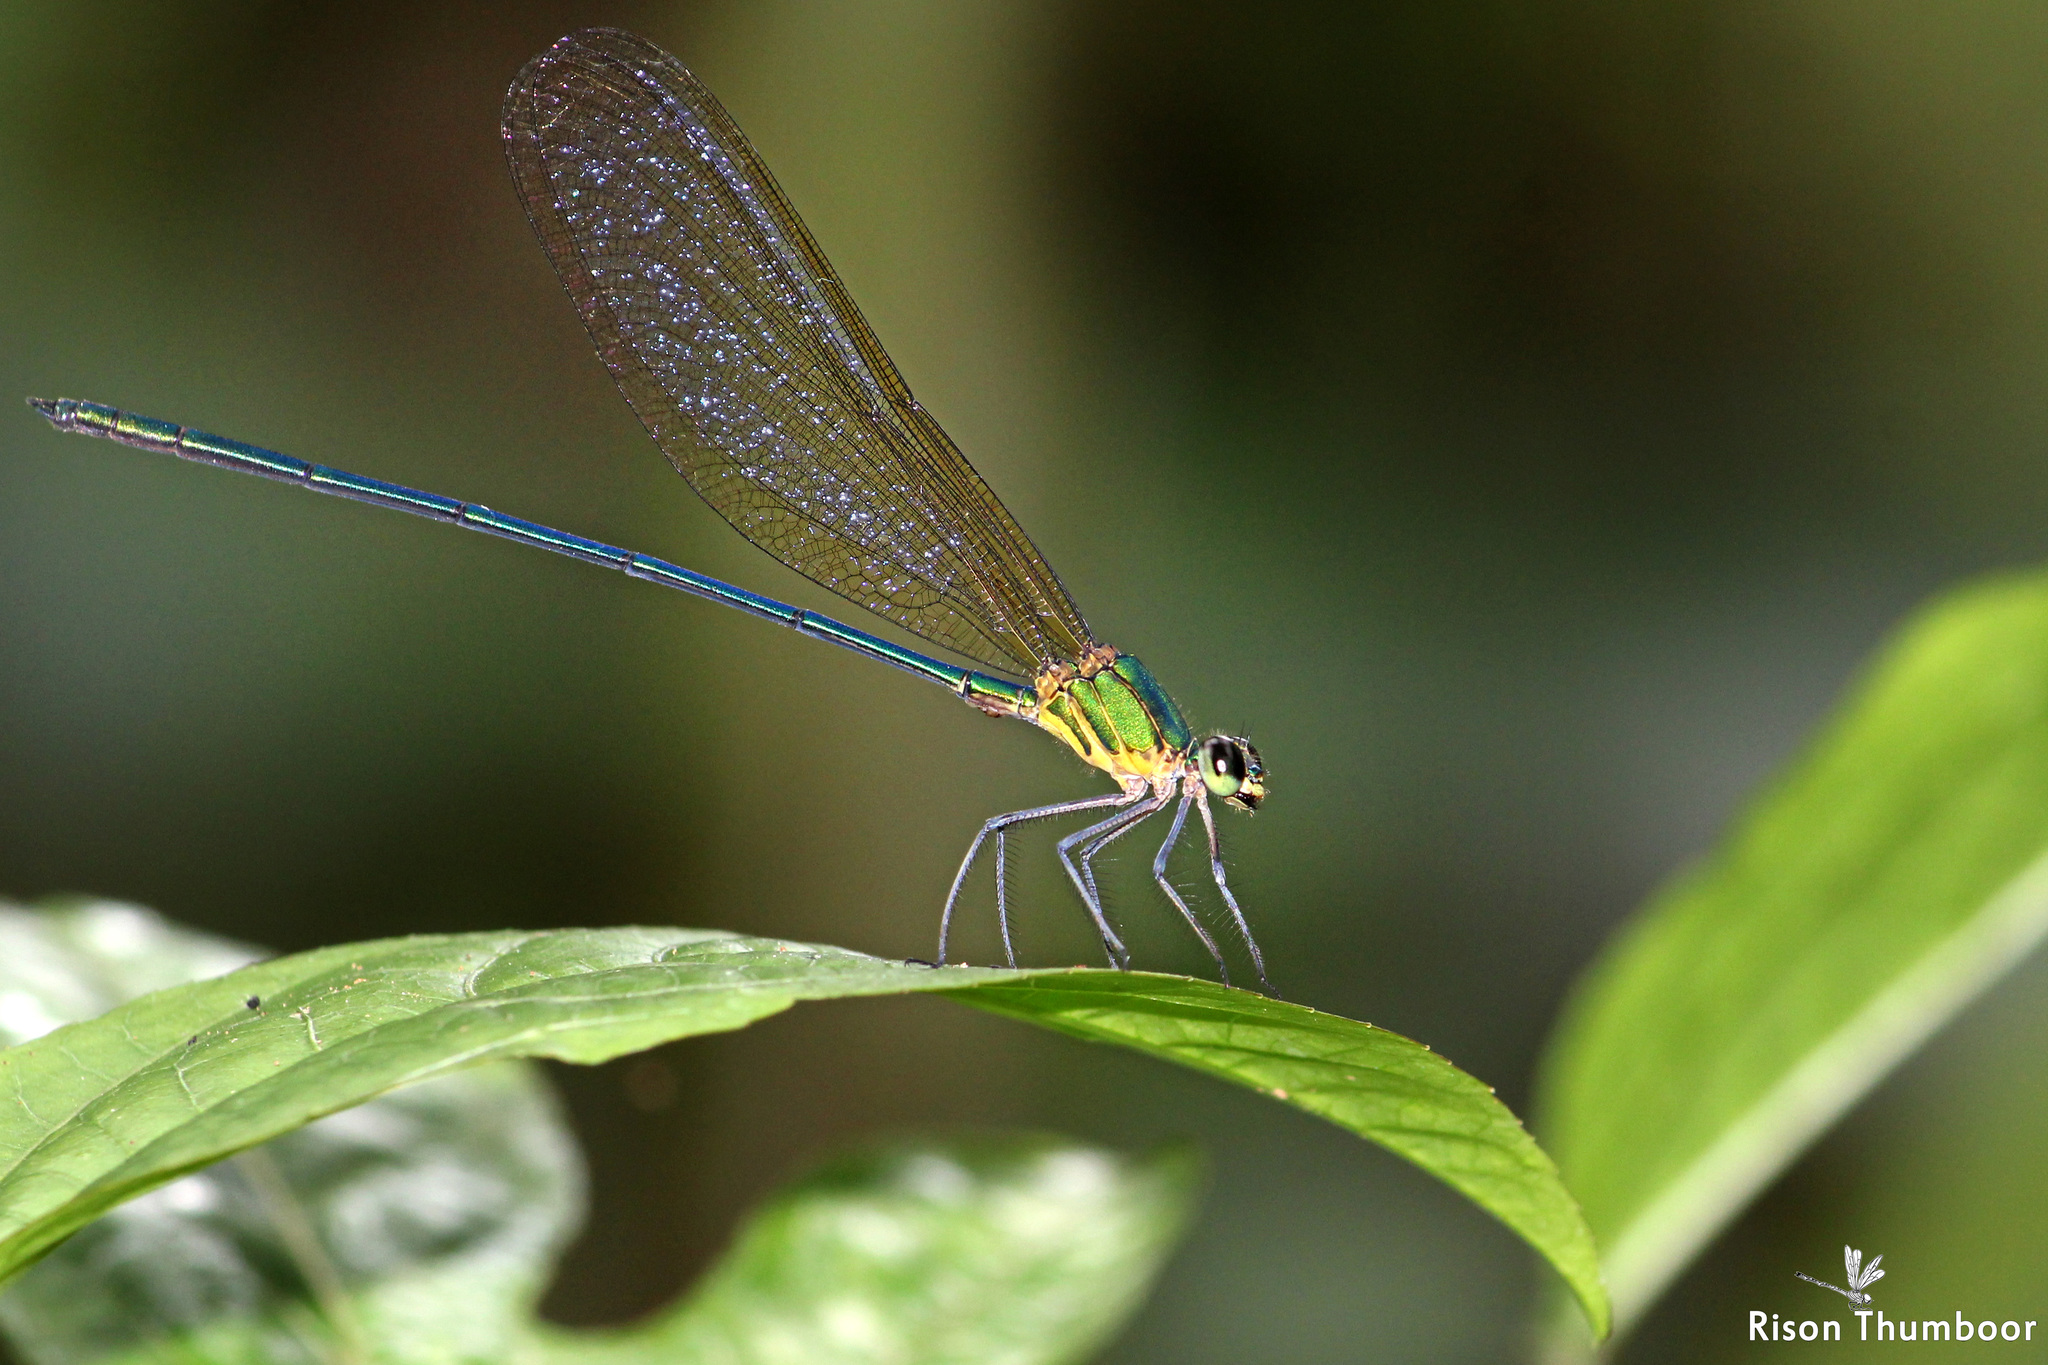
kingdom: Animalia
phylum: Arthropoda
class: Insecta
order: Odonata
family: Calopterygidae
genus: Vestalis
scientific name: Vestalis gracilis
